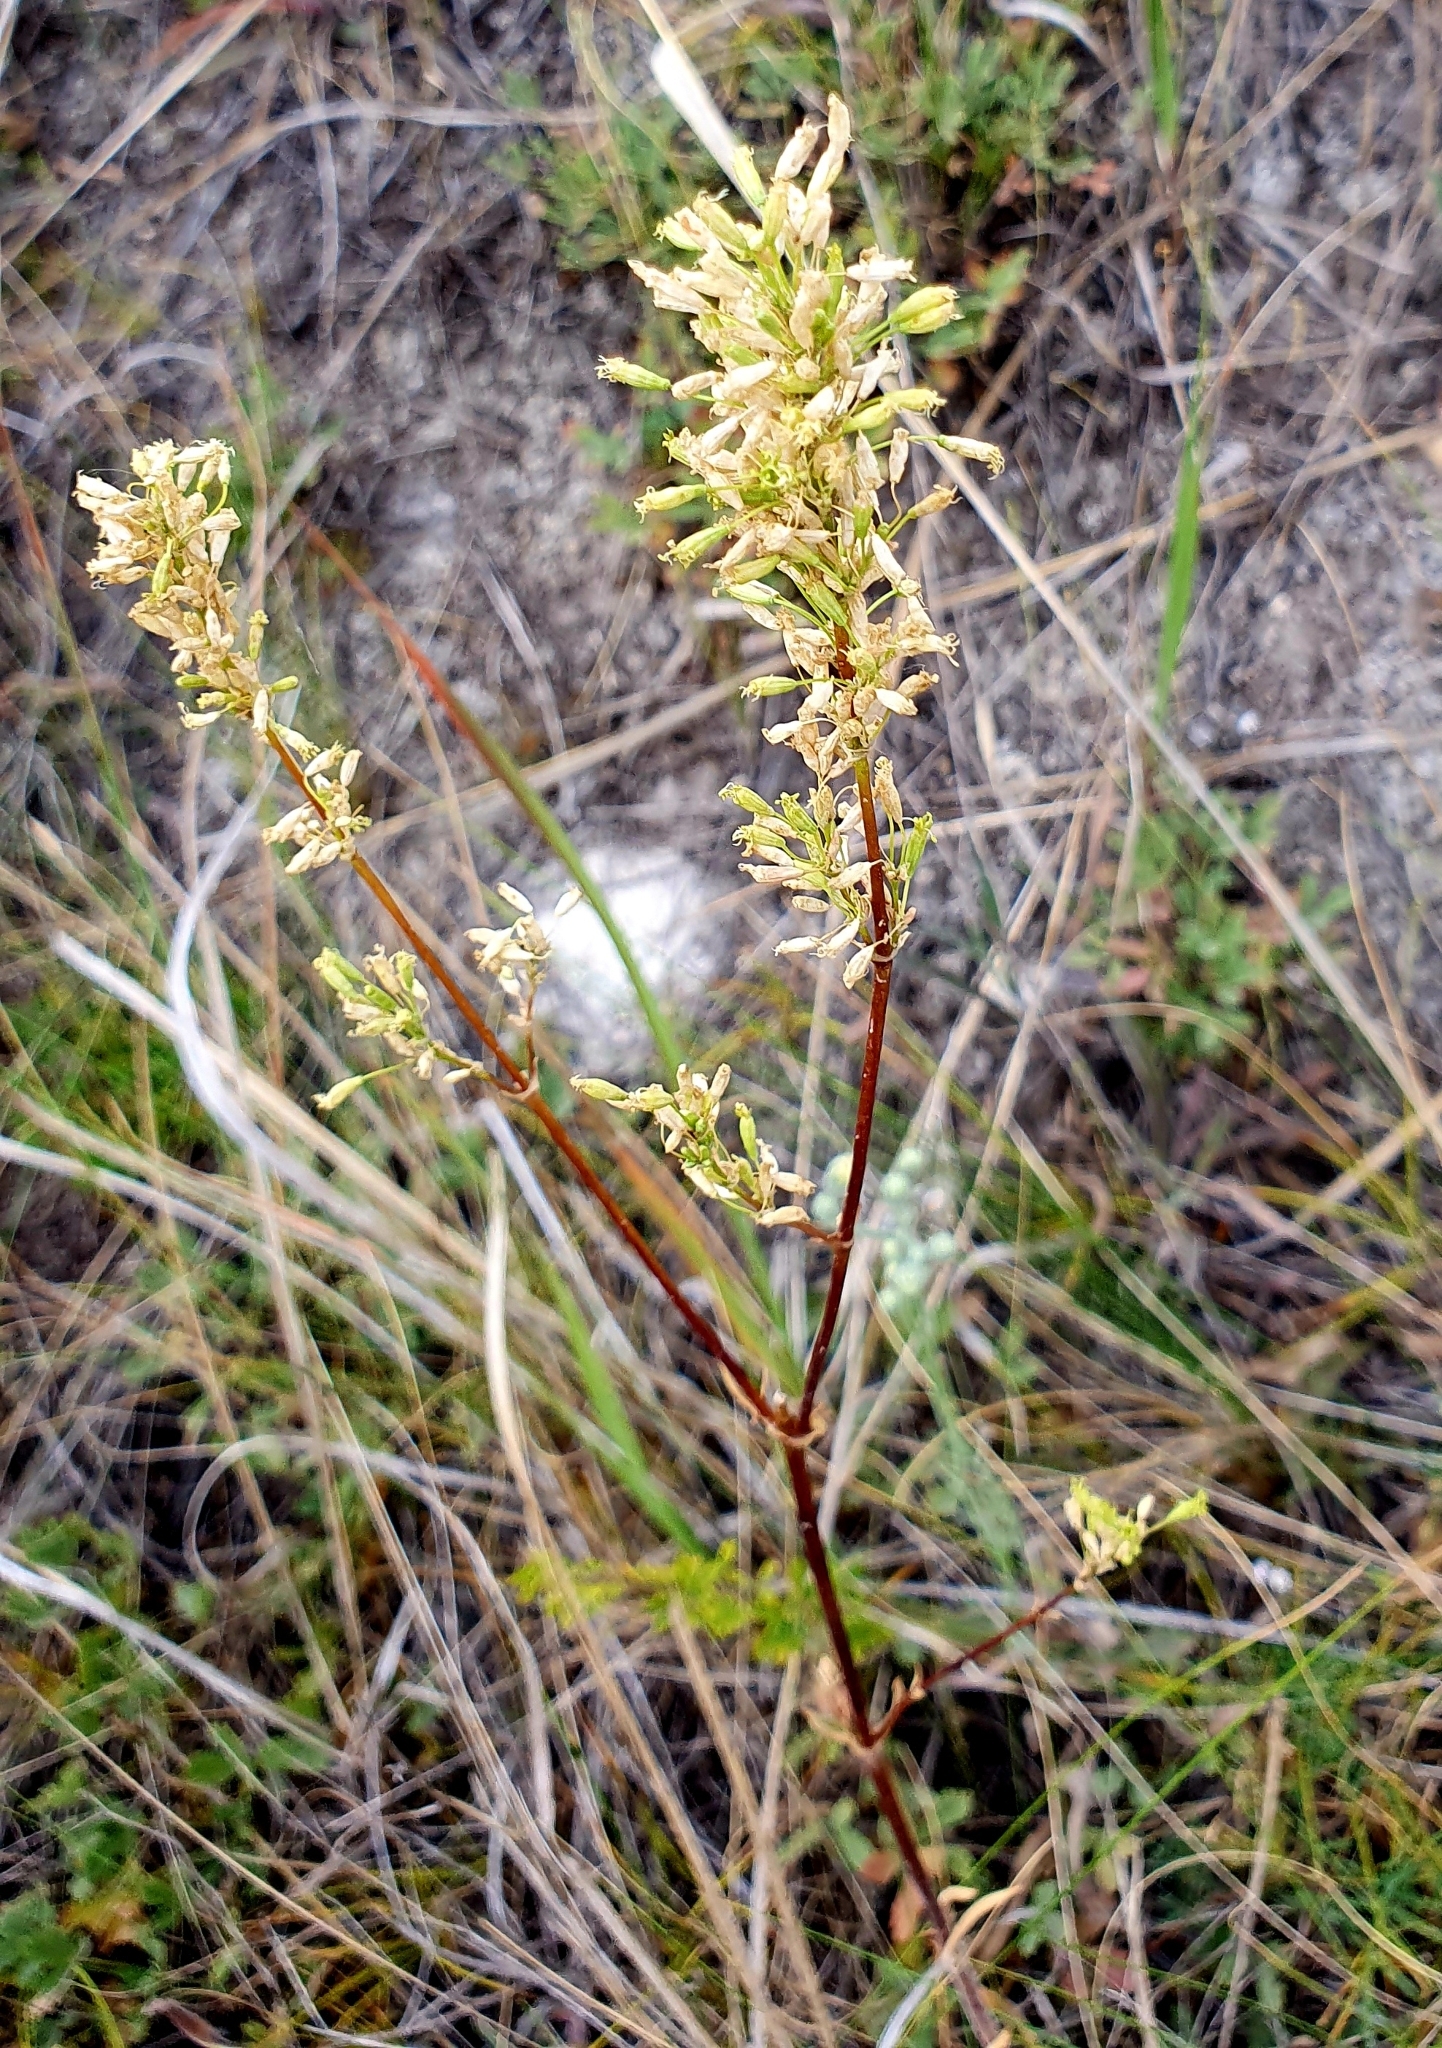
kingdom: Plantae
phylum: Tracheophyta
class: Magnoliopsida
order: Caryophyllales
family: Caryophyllaceae
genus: Silene
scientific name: Silene chersonensis
